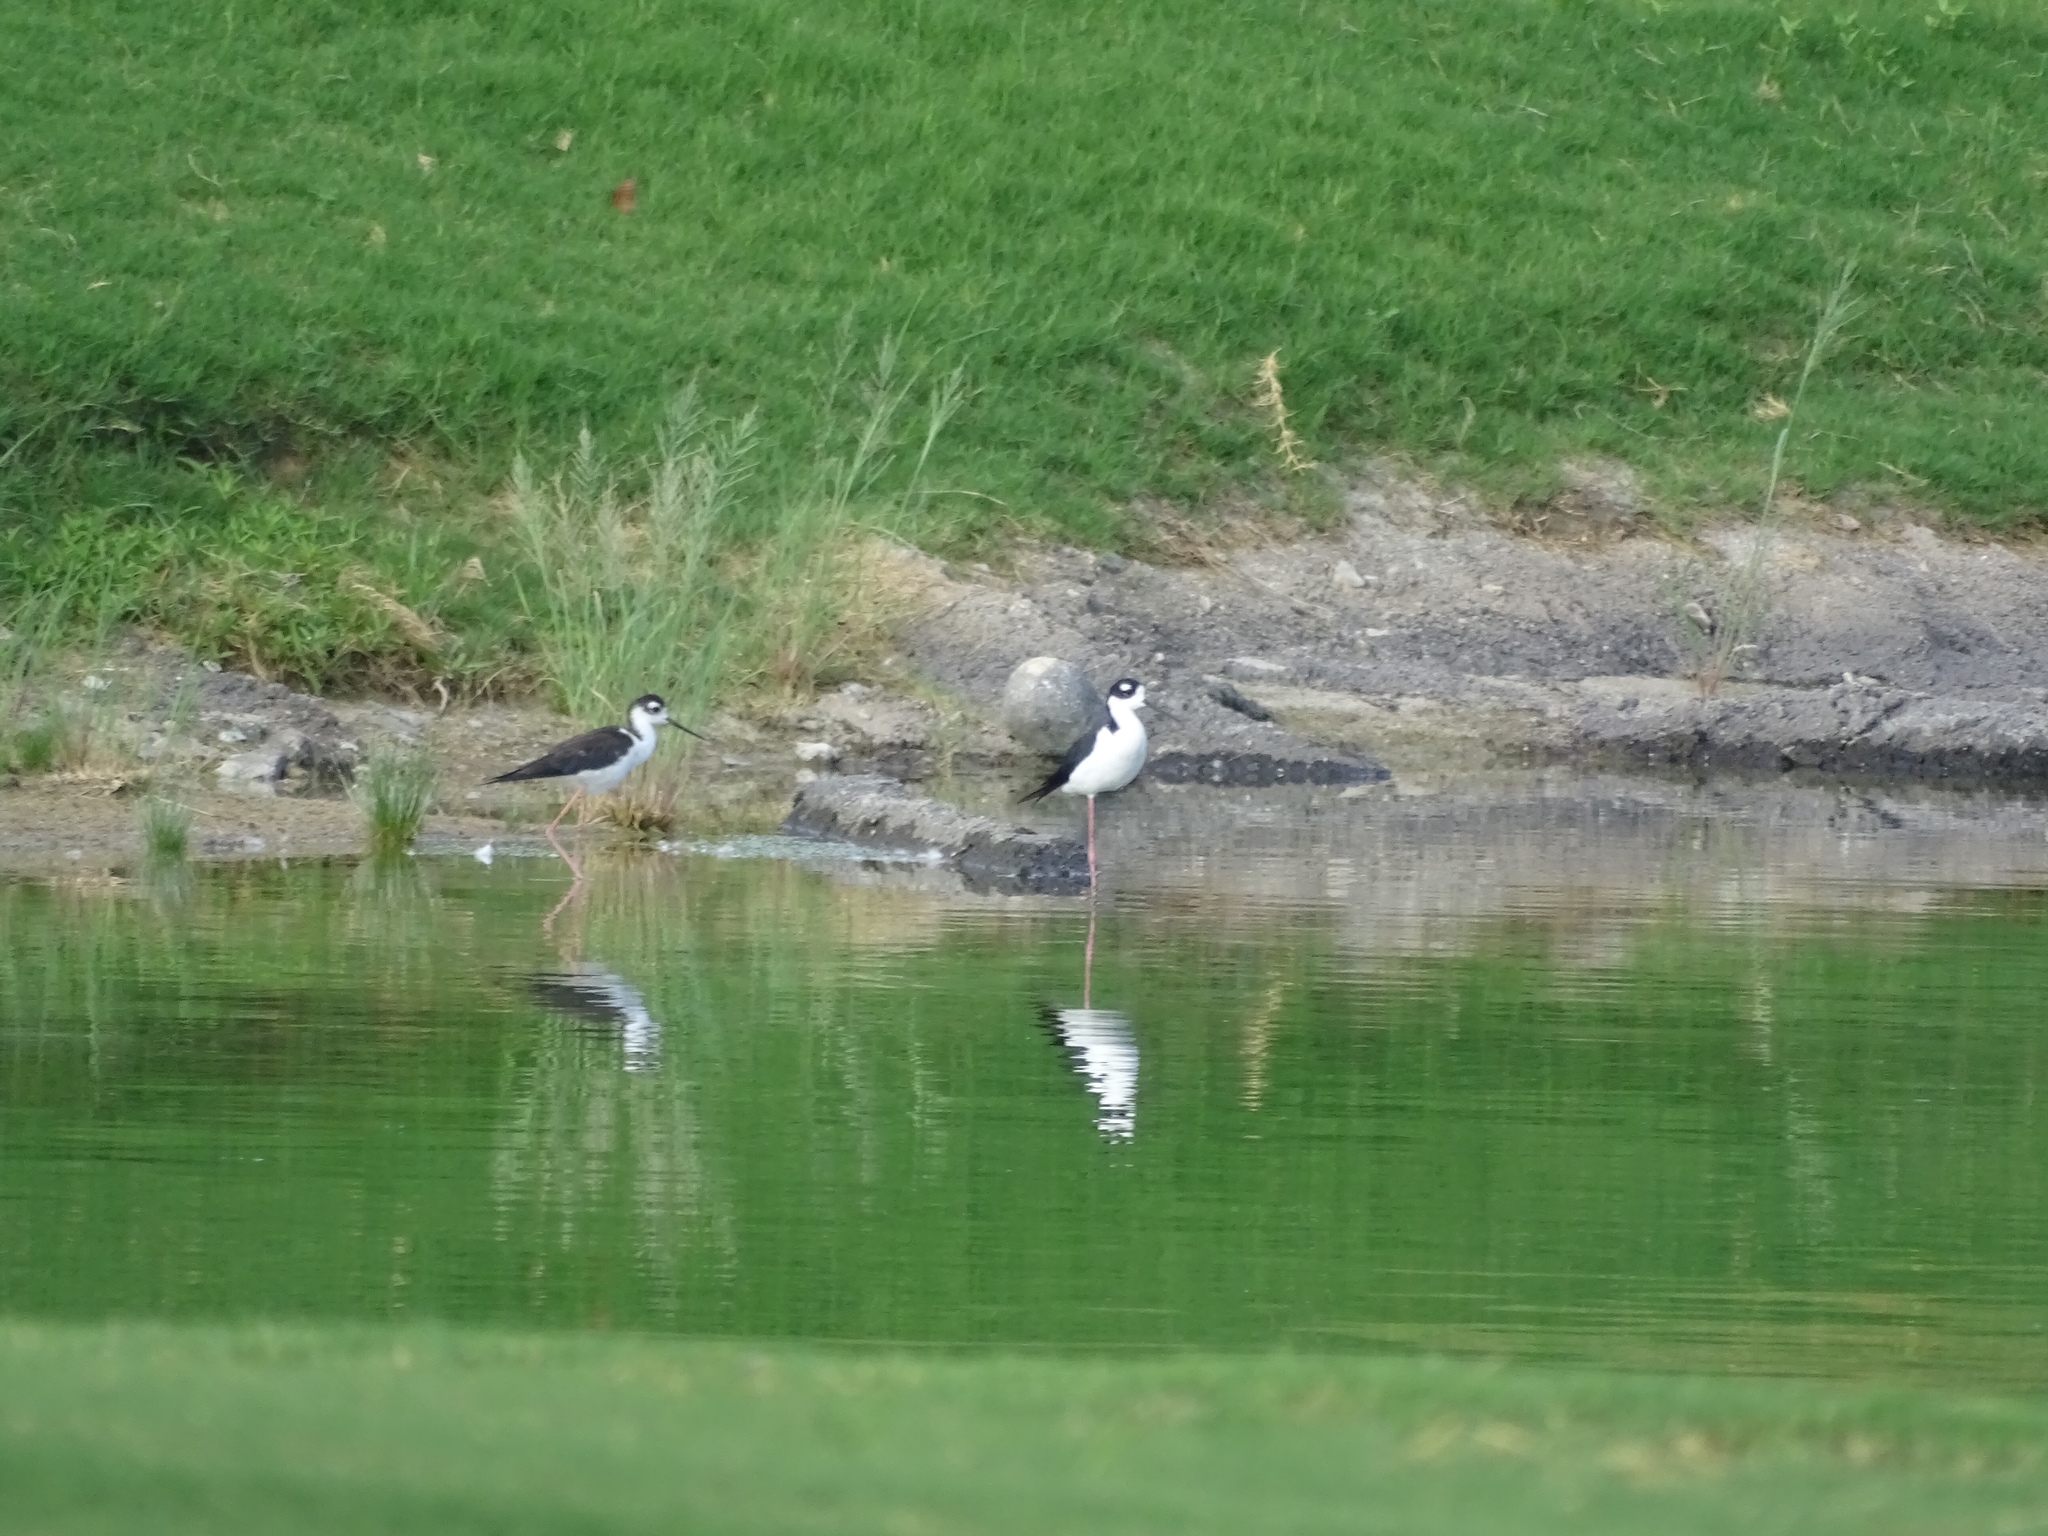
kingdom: Animalia
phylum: Chordata
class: Aves
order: Charadriiformes
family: Recurvirostridae
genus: Himantopus
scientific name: Himantopus mexicanus
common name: Black-necked stilt
